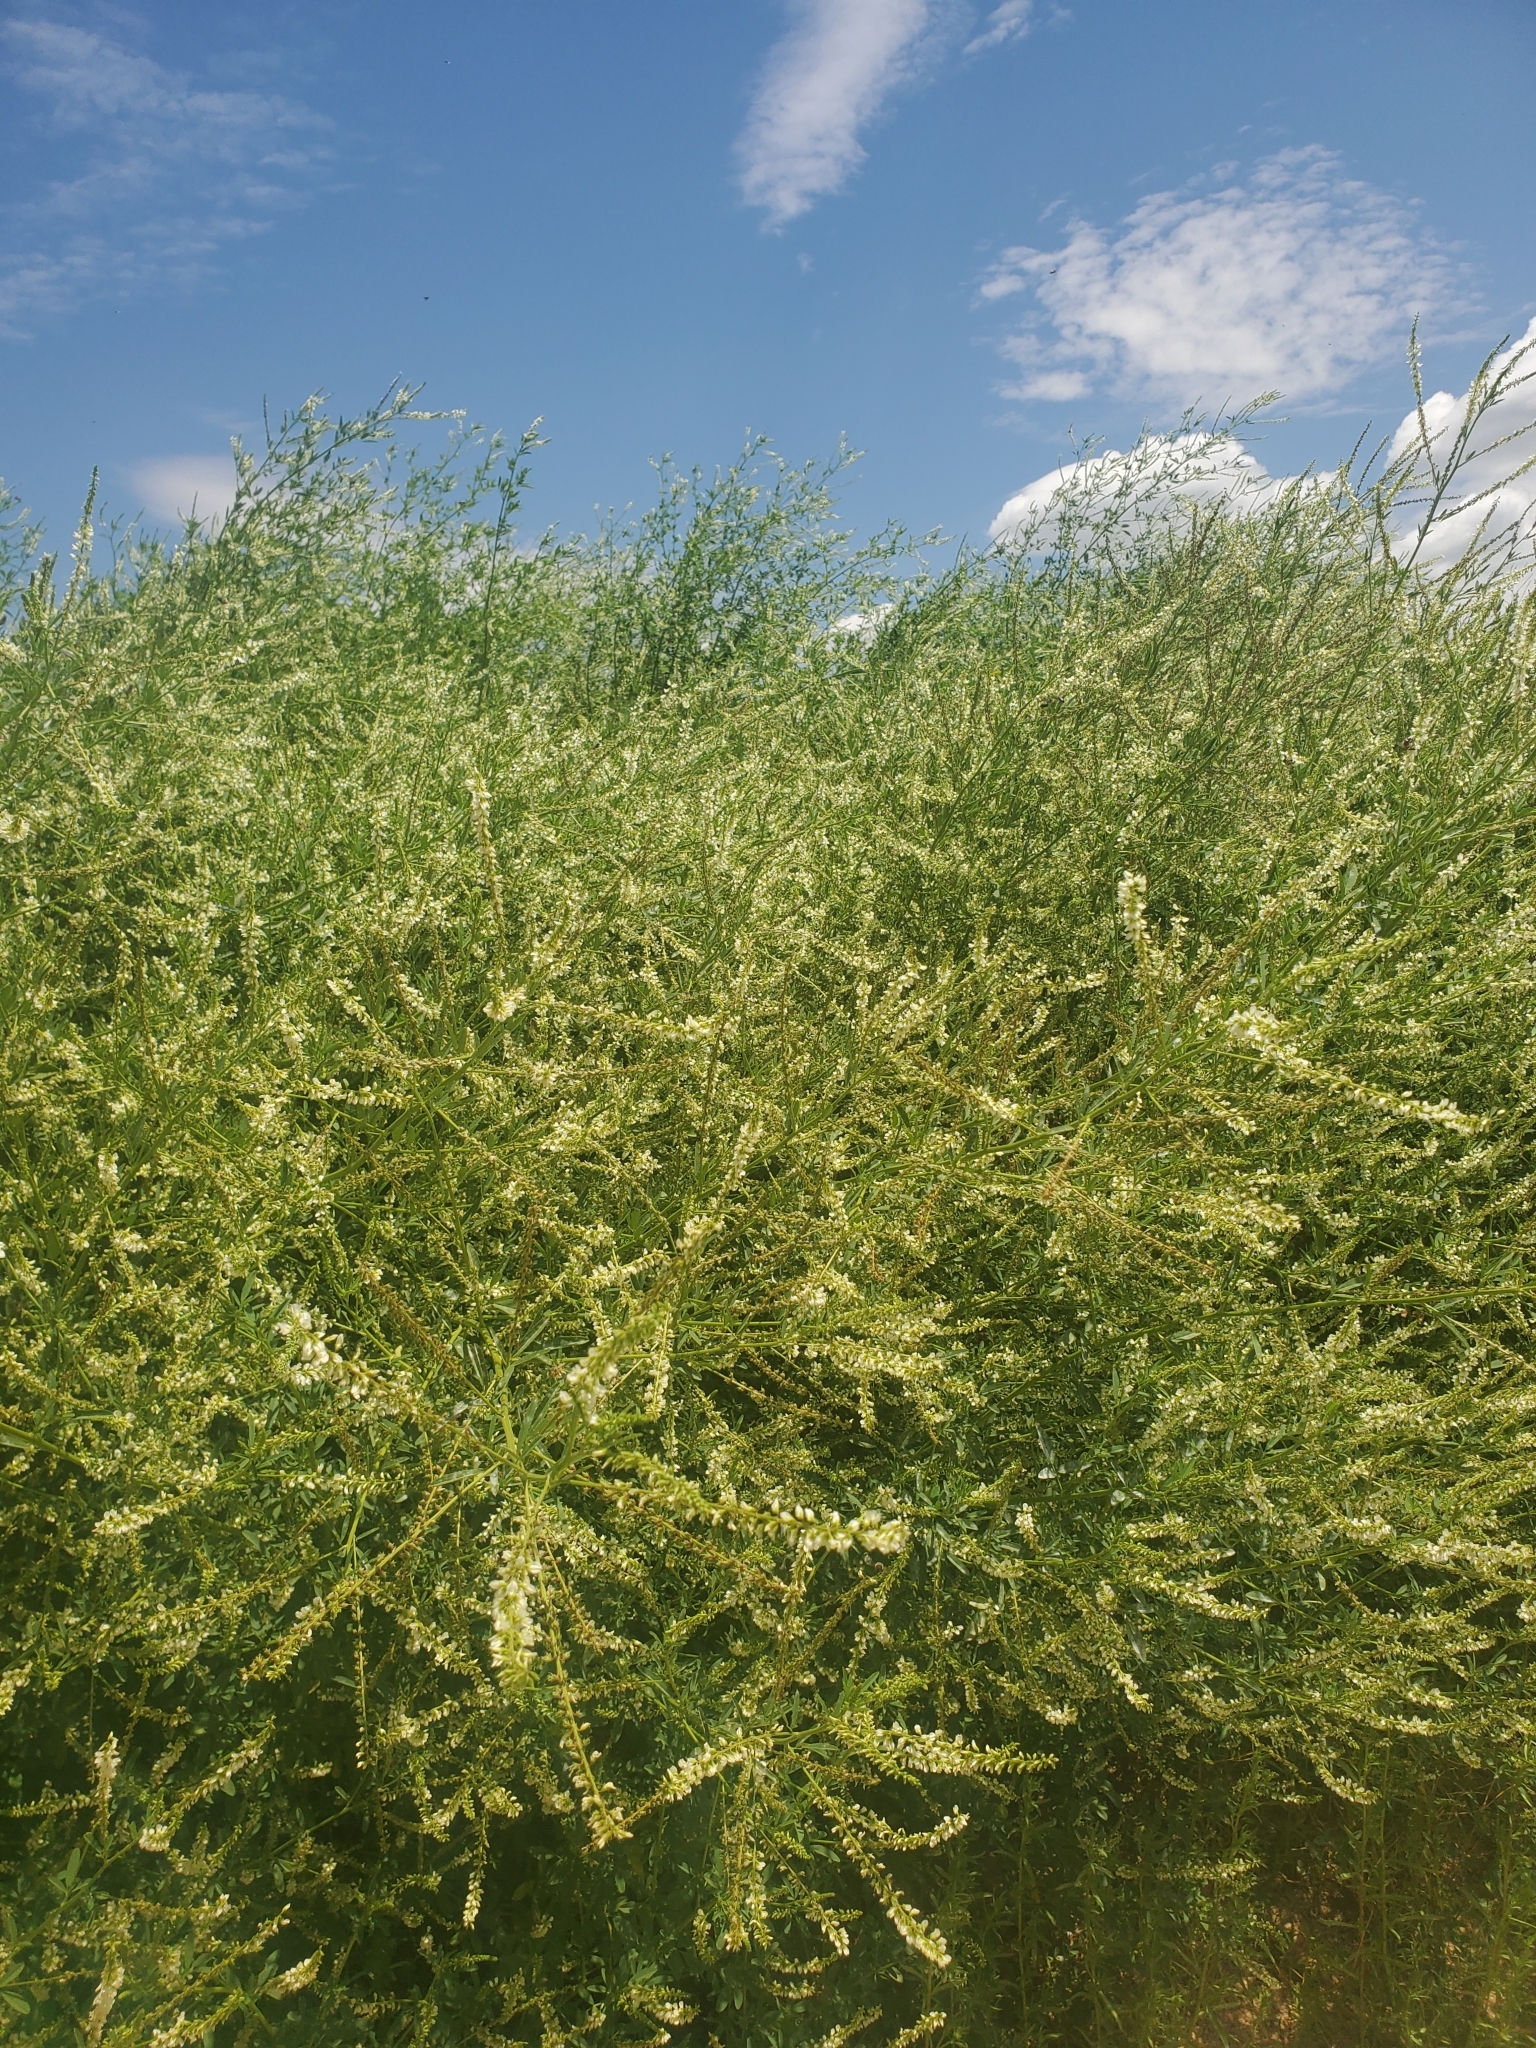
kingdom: Plantae
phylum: Tracheophyta
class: Magnoliopsida
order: Fabales
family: Fabaceae
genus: Melilotus
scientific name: Melilotus albus
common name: White melilot
